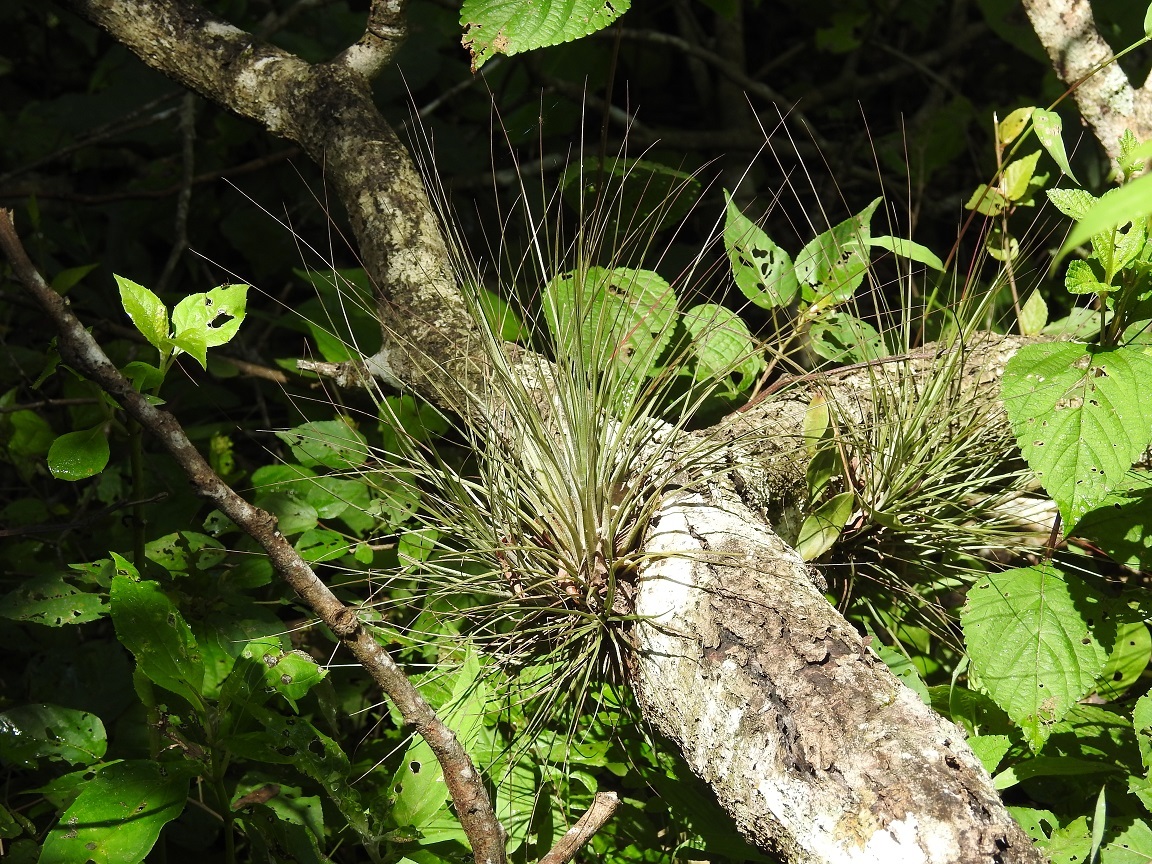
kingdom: Plantae
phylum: Tracheophyta
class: Liliopsida
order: Poales
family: Bromeliaceae
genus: Tillandsia
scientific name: Tillandsia juncea
